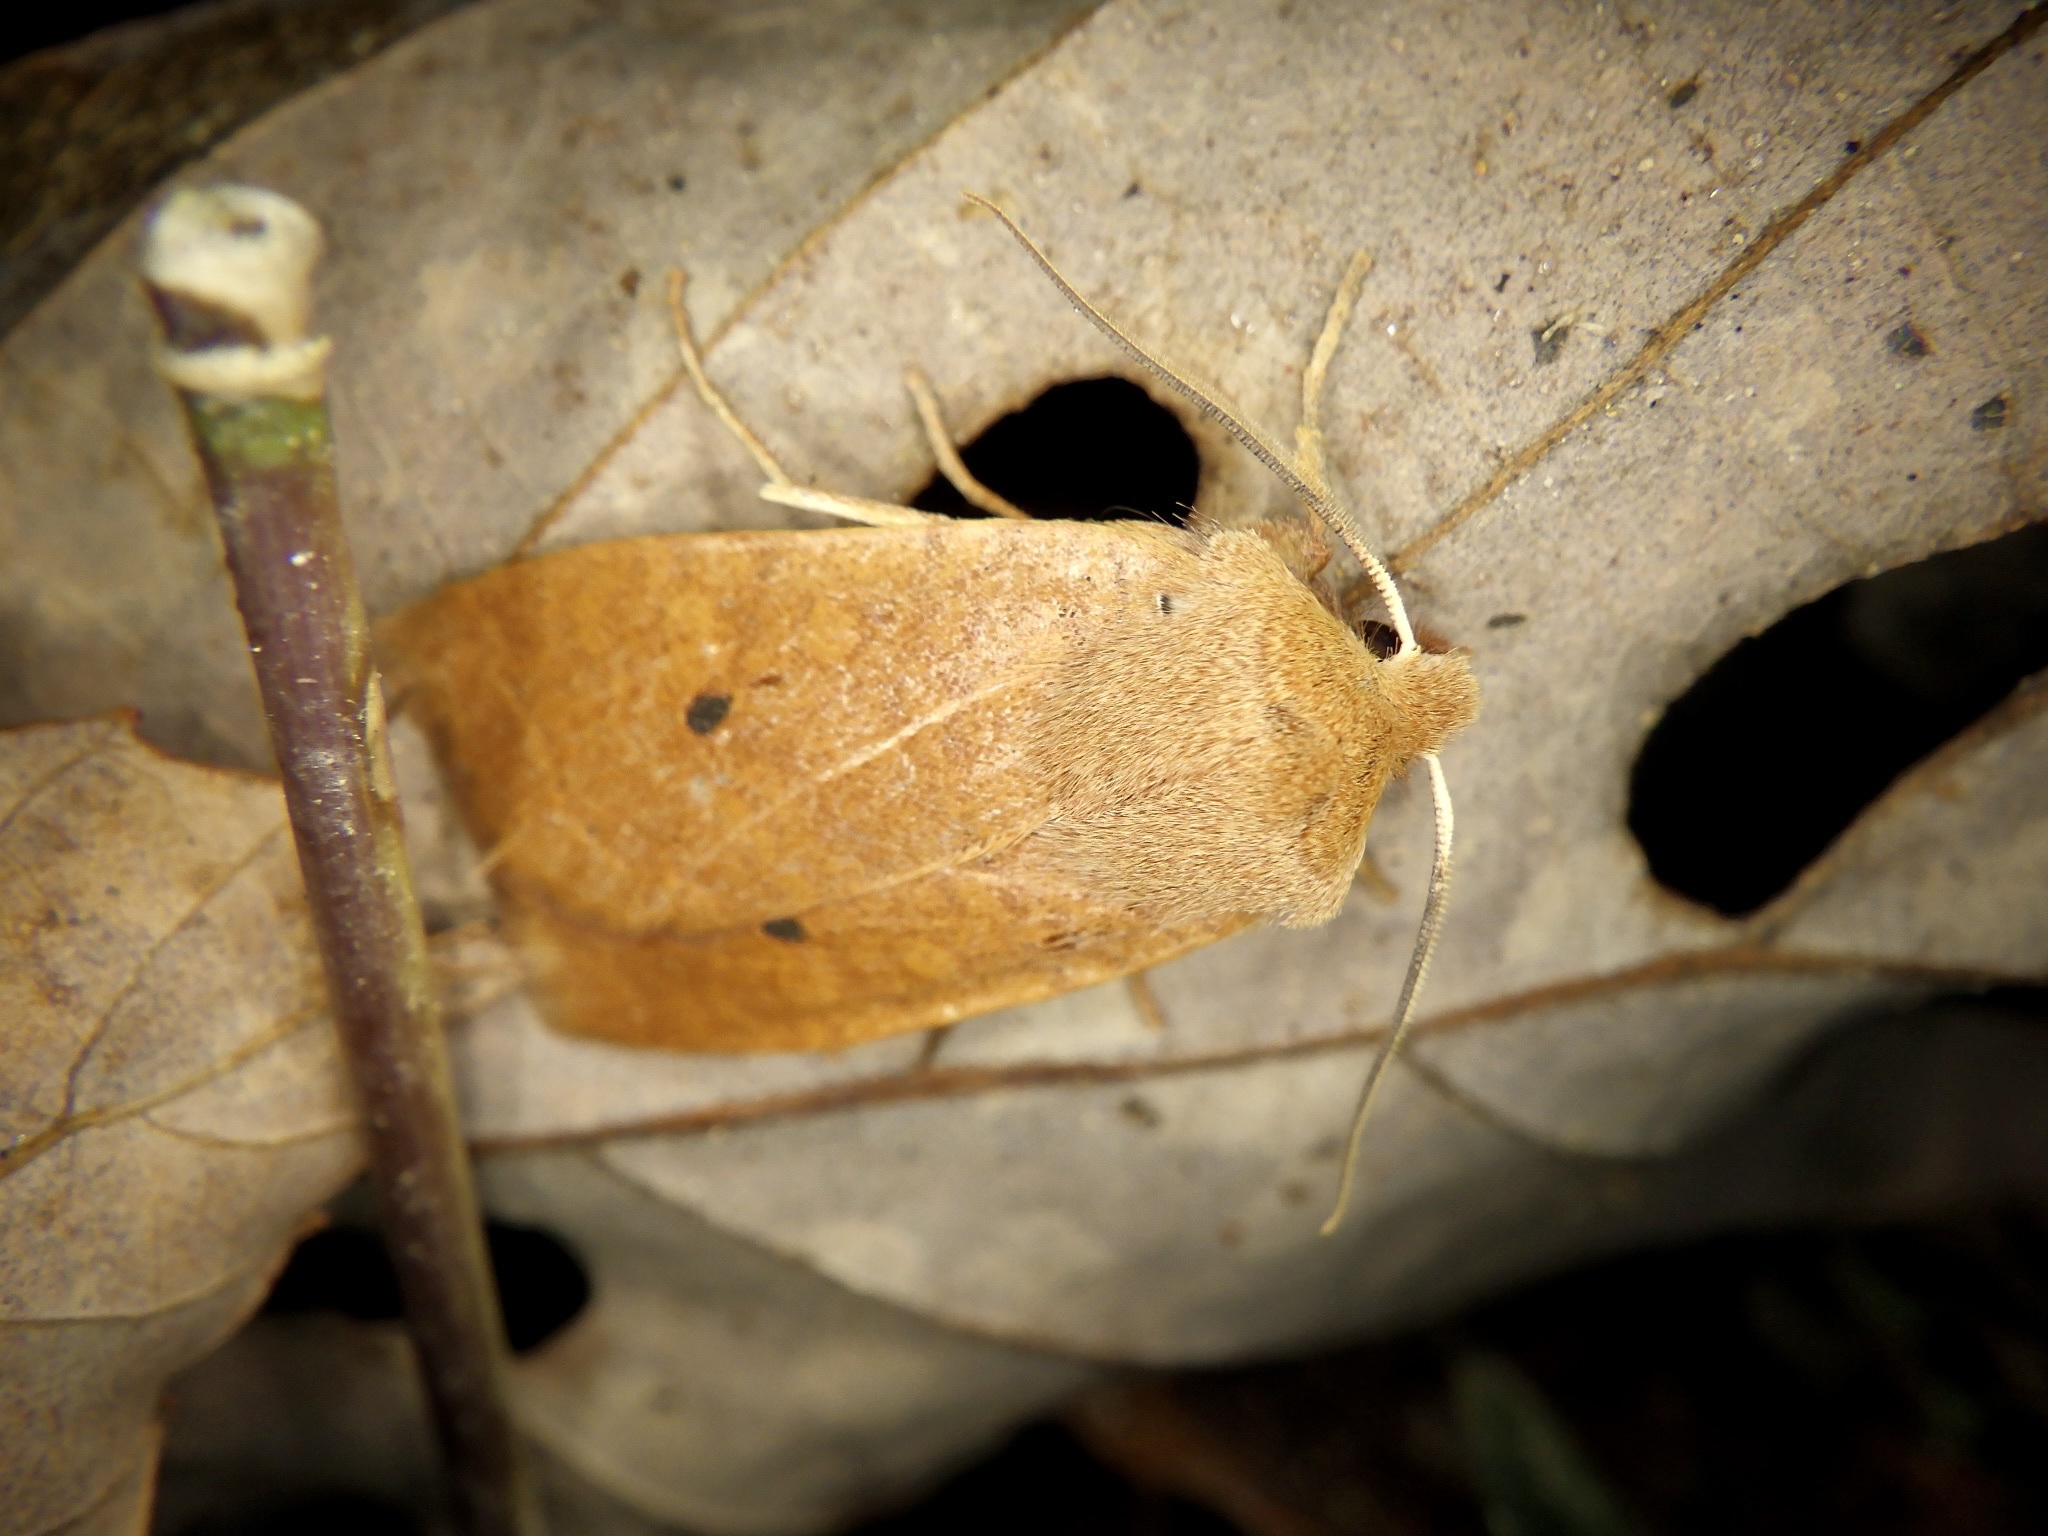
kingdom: Animalia
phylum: Arthropoda
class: Insecta
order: Lepidoptera
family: Noctuidae
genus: Conistra
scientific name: Conistra albipuncta
